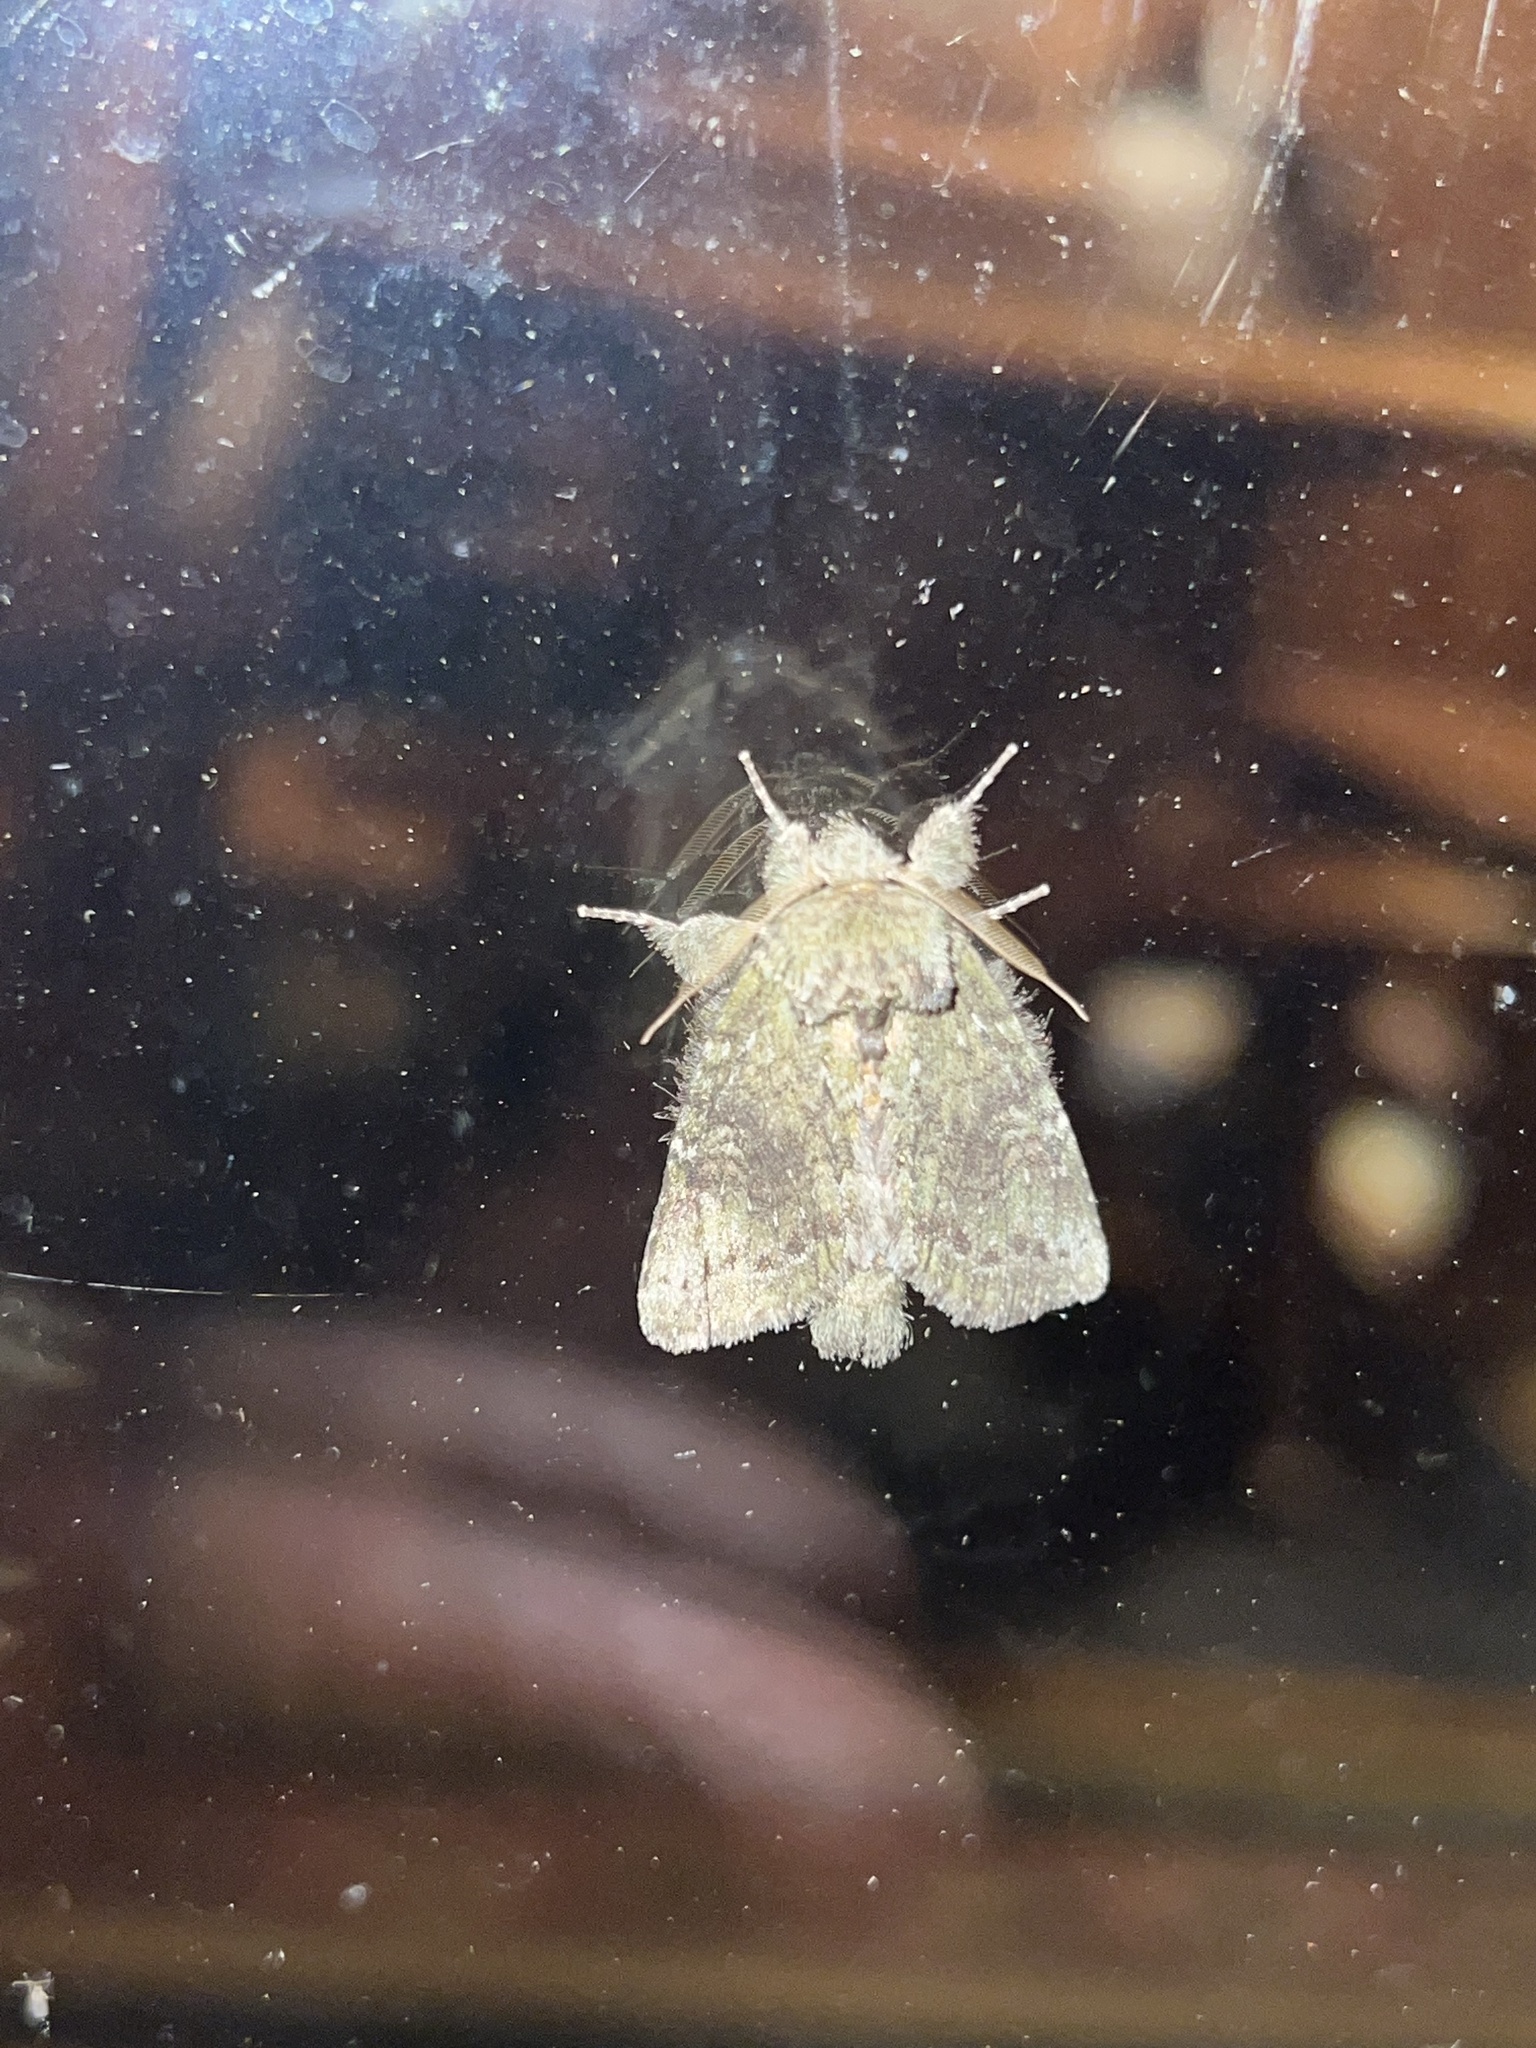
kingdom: Animalia
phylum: Arthropoda
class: Insecta
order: Lepidoptera
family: Notodontidae
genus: Disphragis
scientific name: Disphragis Cecrita biundata
